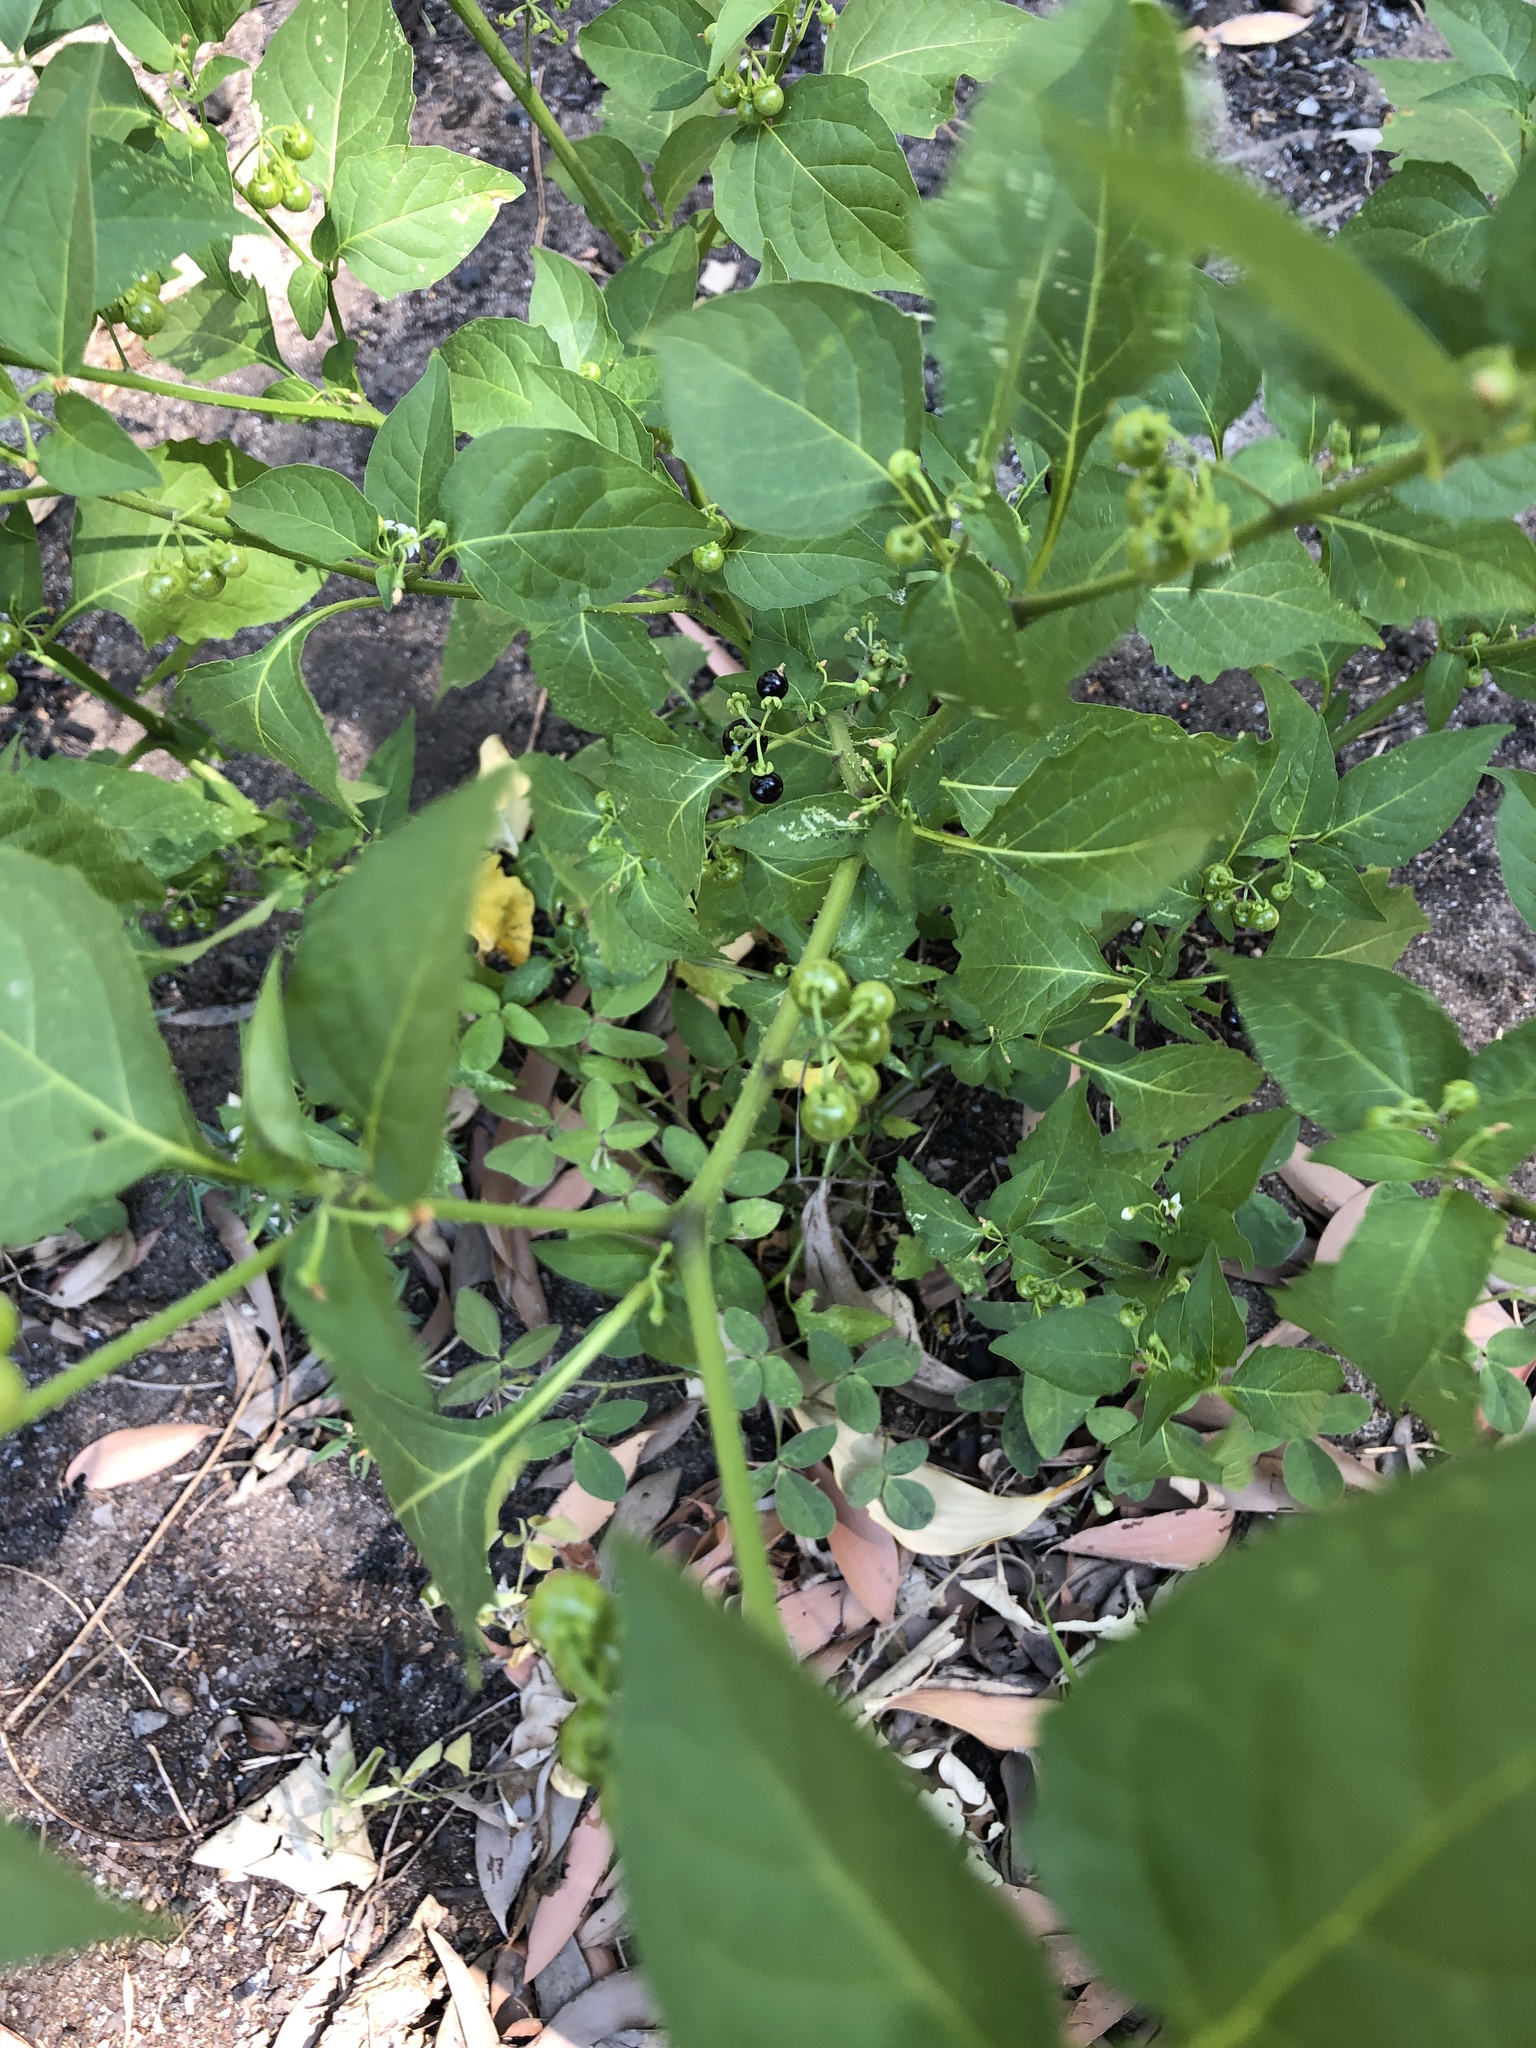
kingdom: Plantae
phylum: Tracheophyta
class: Magnoliopsida
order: Solanales
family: Solanaceae
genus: Solanum
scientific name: Solanum americanum
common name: American black nightshade
